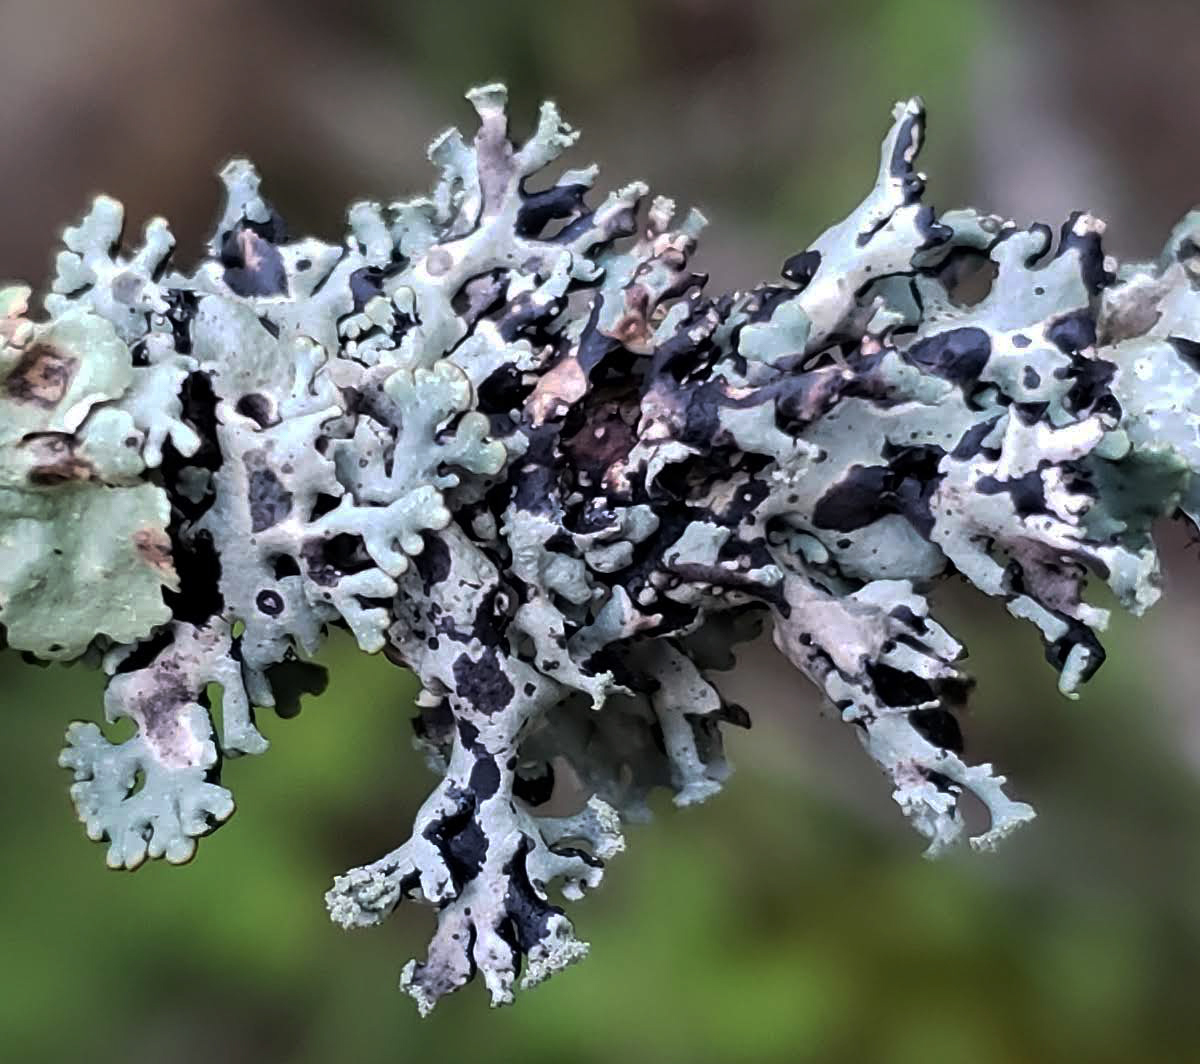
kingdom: Fungi
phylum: Ascomycota
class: Lecanoromycetes
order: Lecanorales
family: Parmeliaceae
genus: Hypogymnia
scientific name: Hypogymnia physodes
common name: Dark crottle
